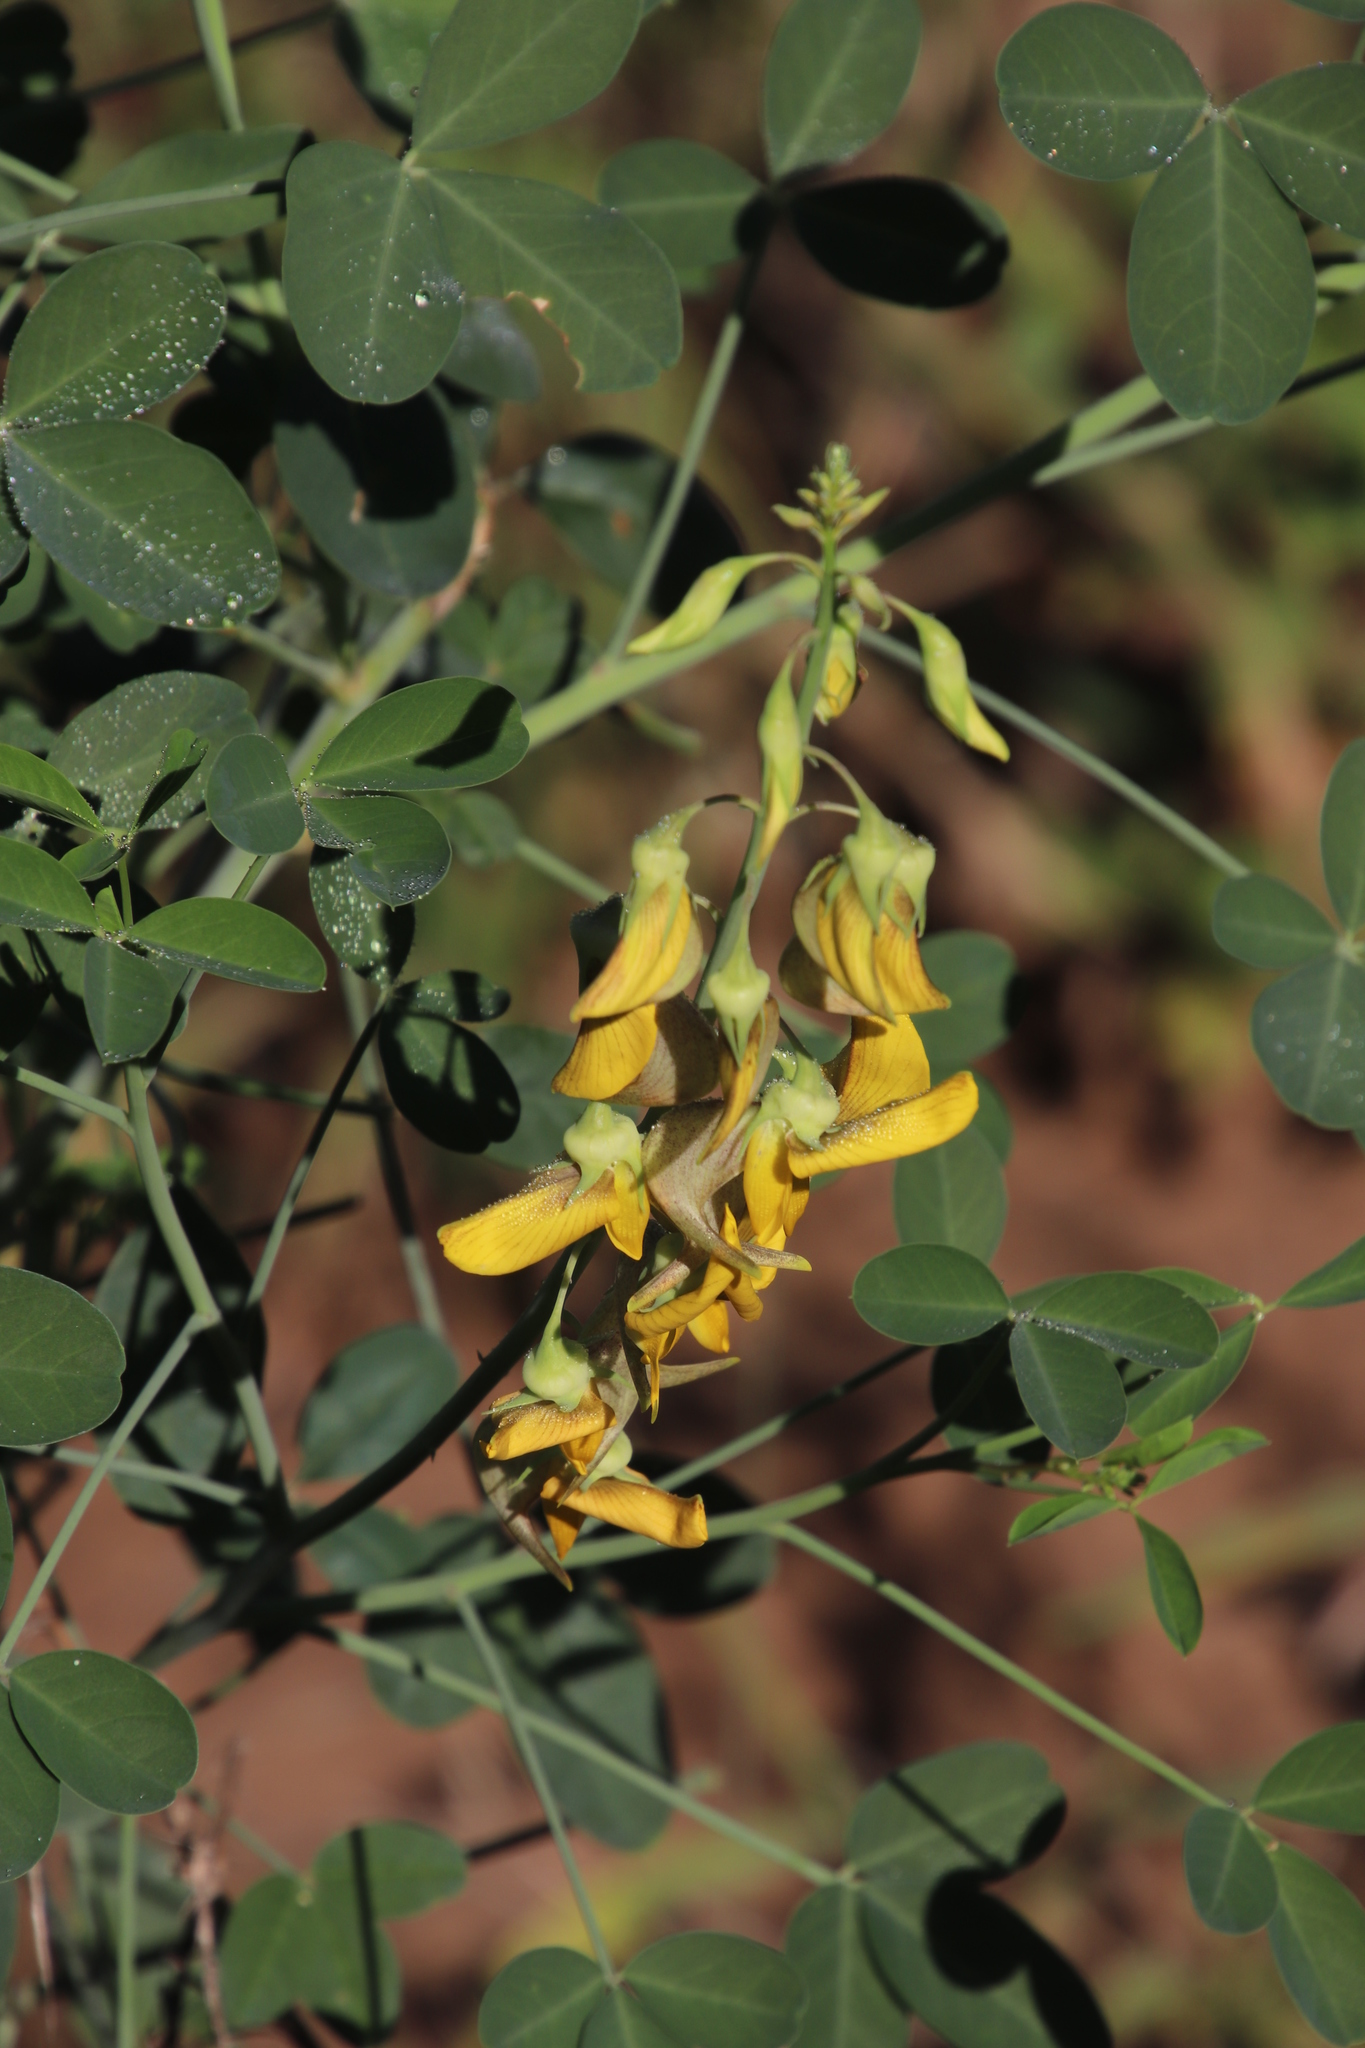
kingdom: Plantae
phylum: Tracheophyta
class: Magnoliopsida
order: Fabales
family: Fabaceae
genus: Crotalaria
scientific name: Crotalaria laburnifolia
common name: Birdflower
